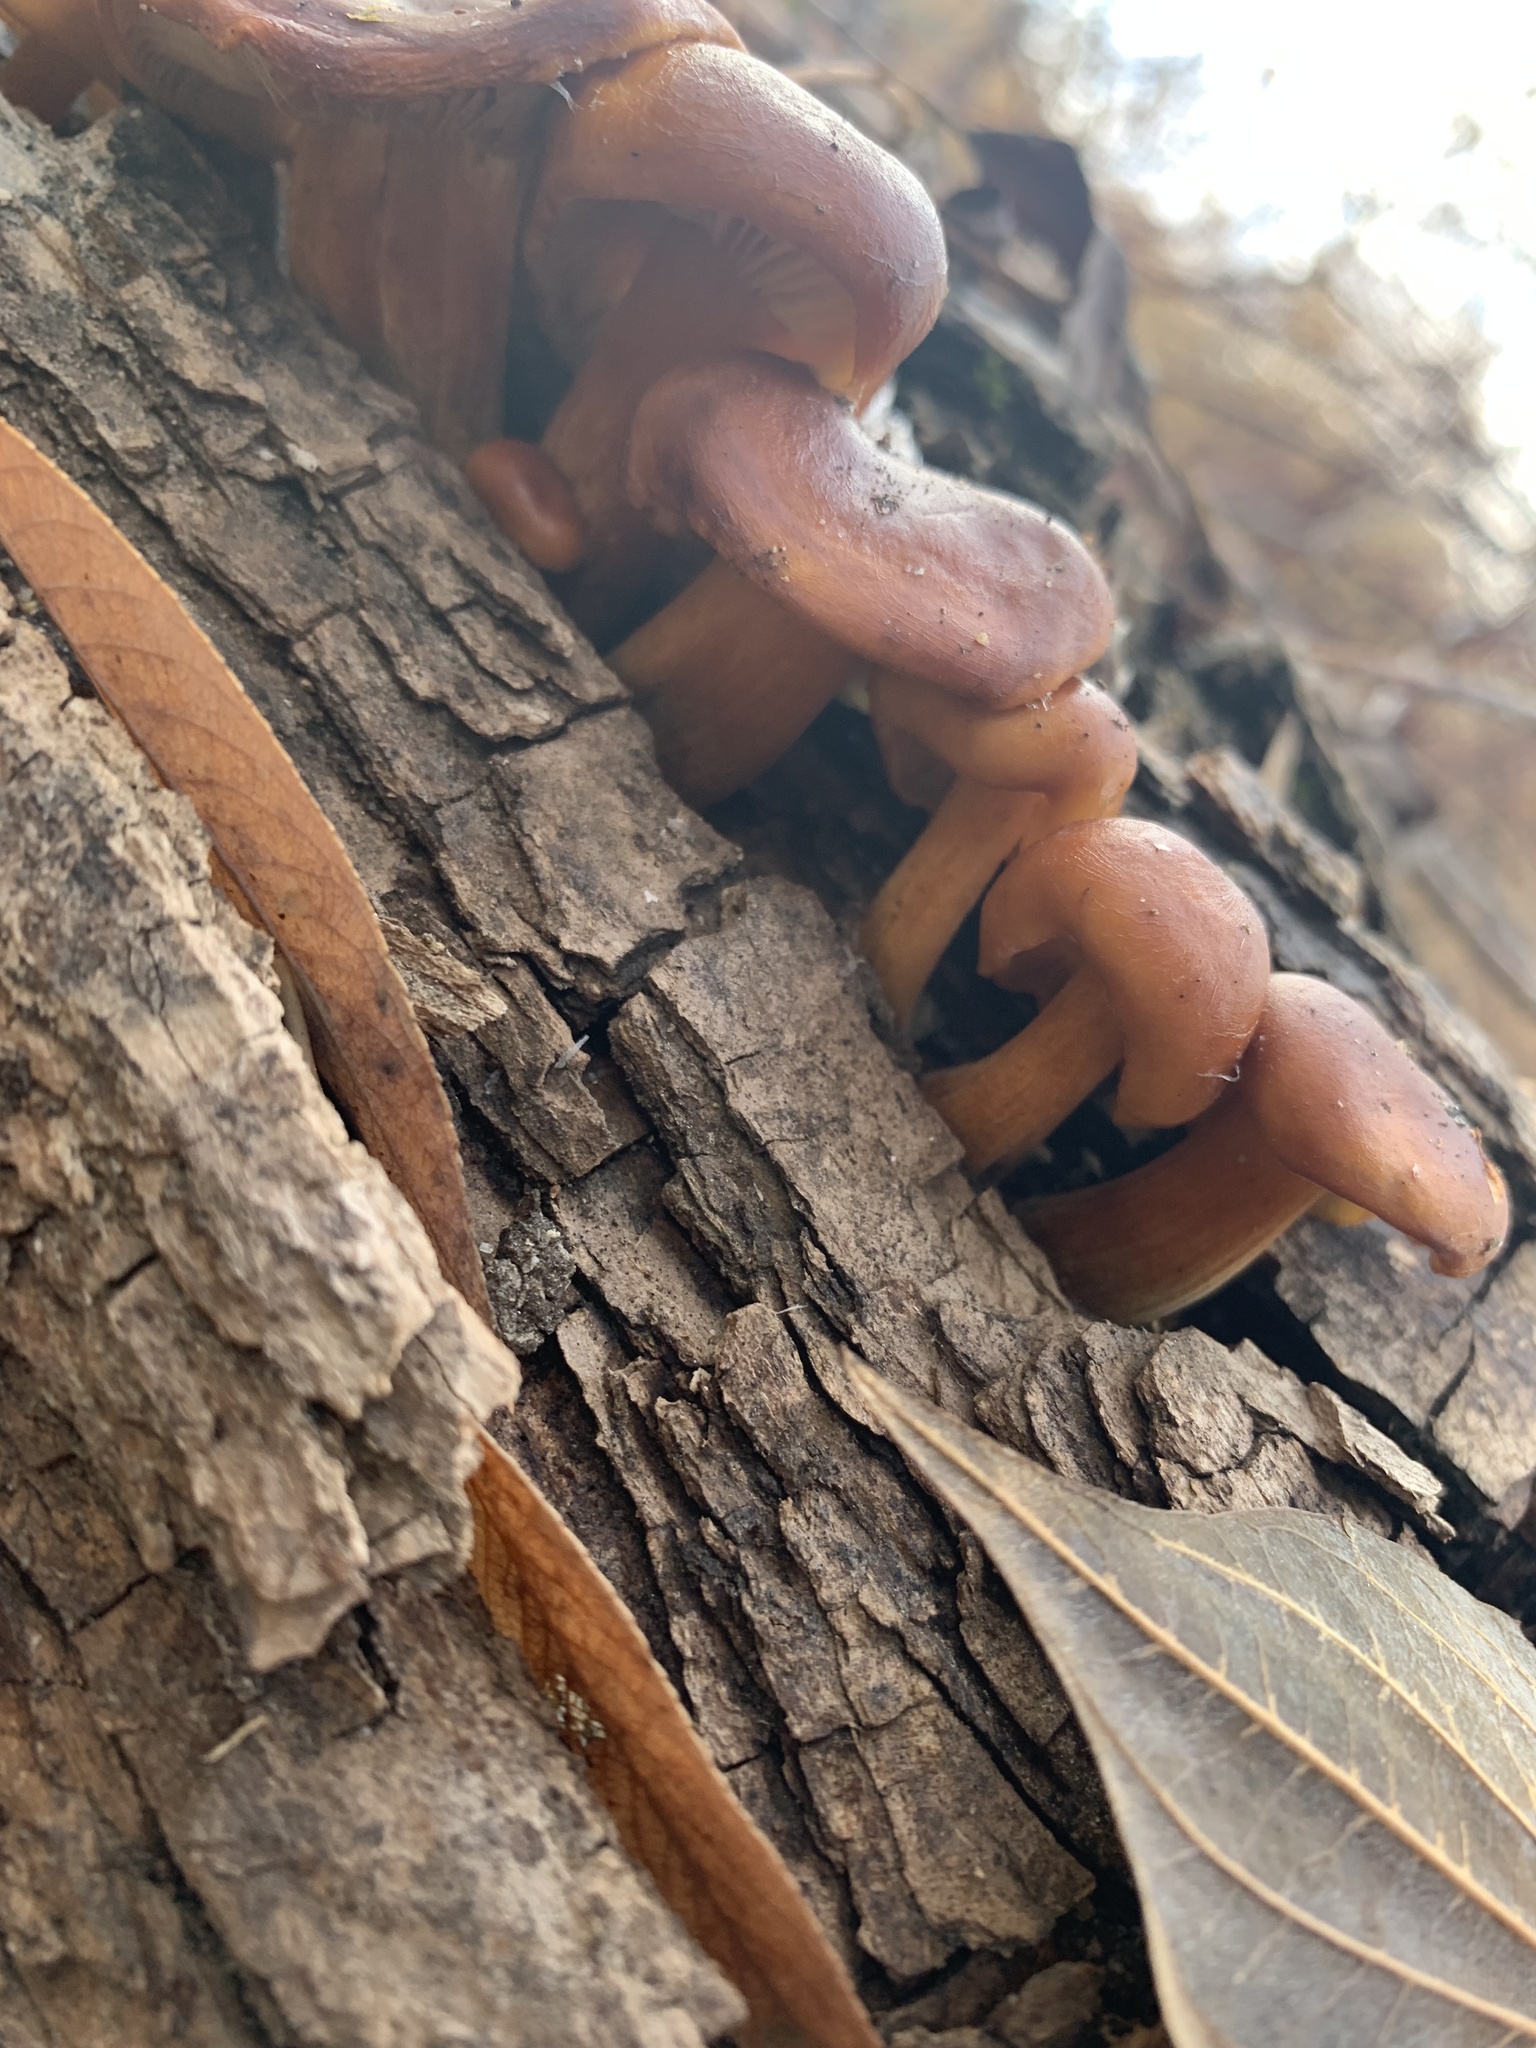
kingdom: Fungi
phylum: Basidiomycota
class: Agaricomycetes
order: Agaricales
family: Physalacriaceae
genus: Flammulina
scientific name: Flammulina velutipes
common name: Velvet shank
